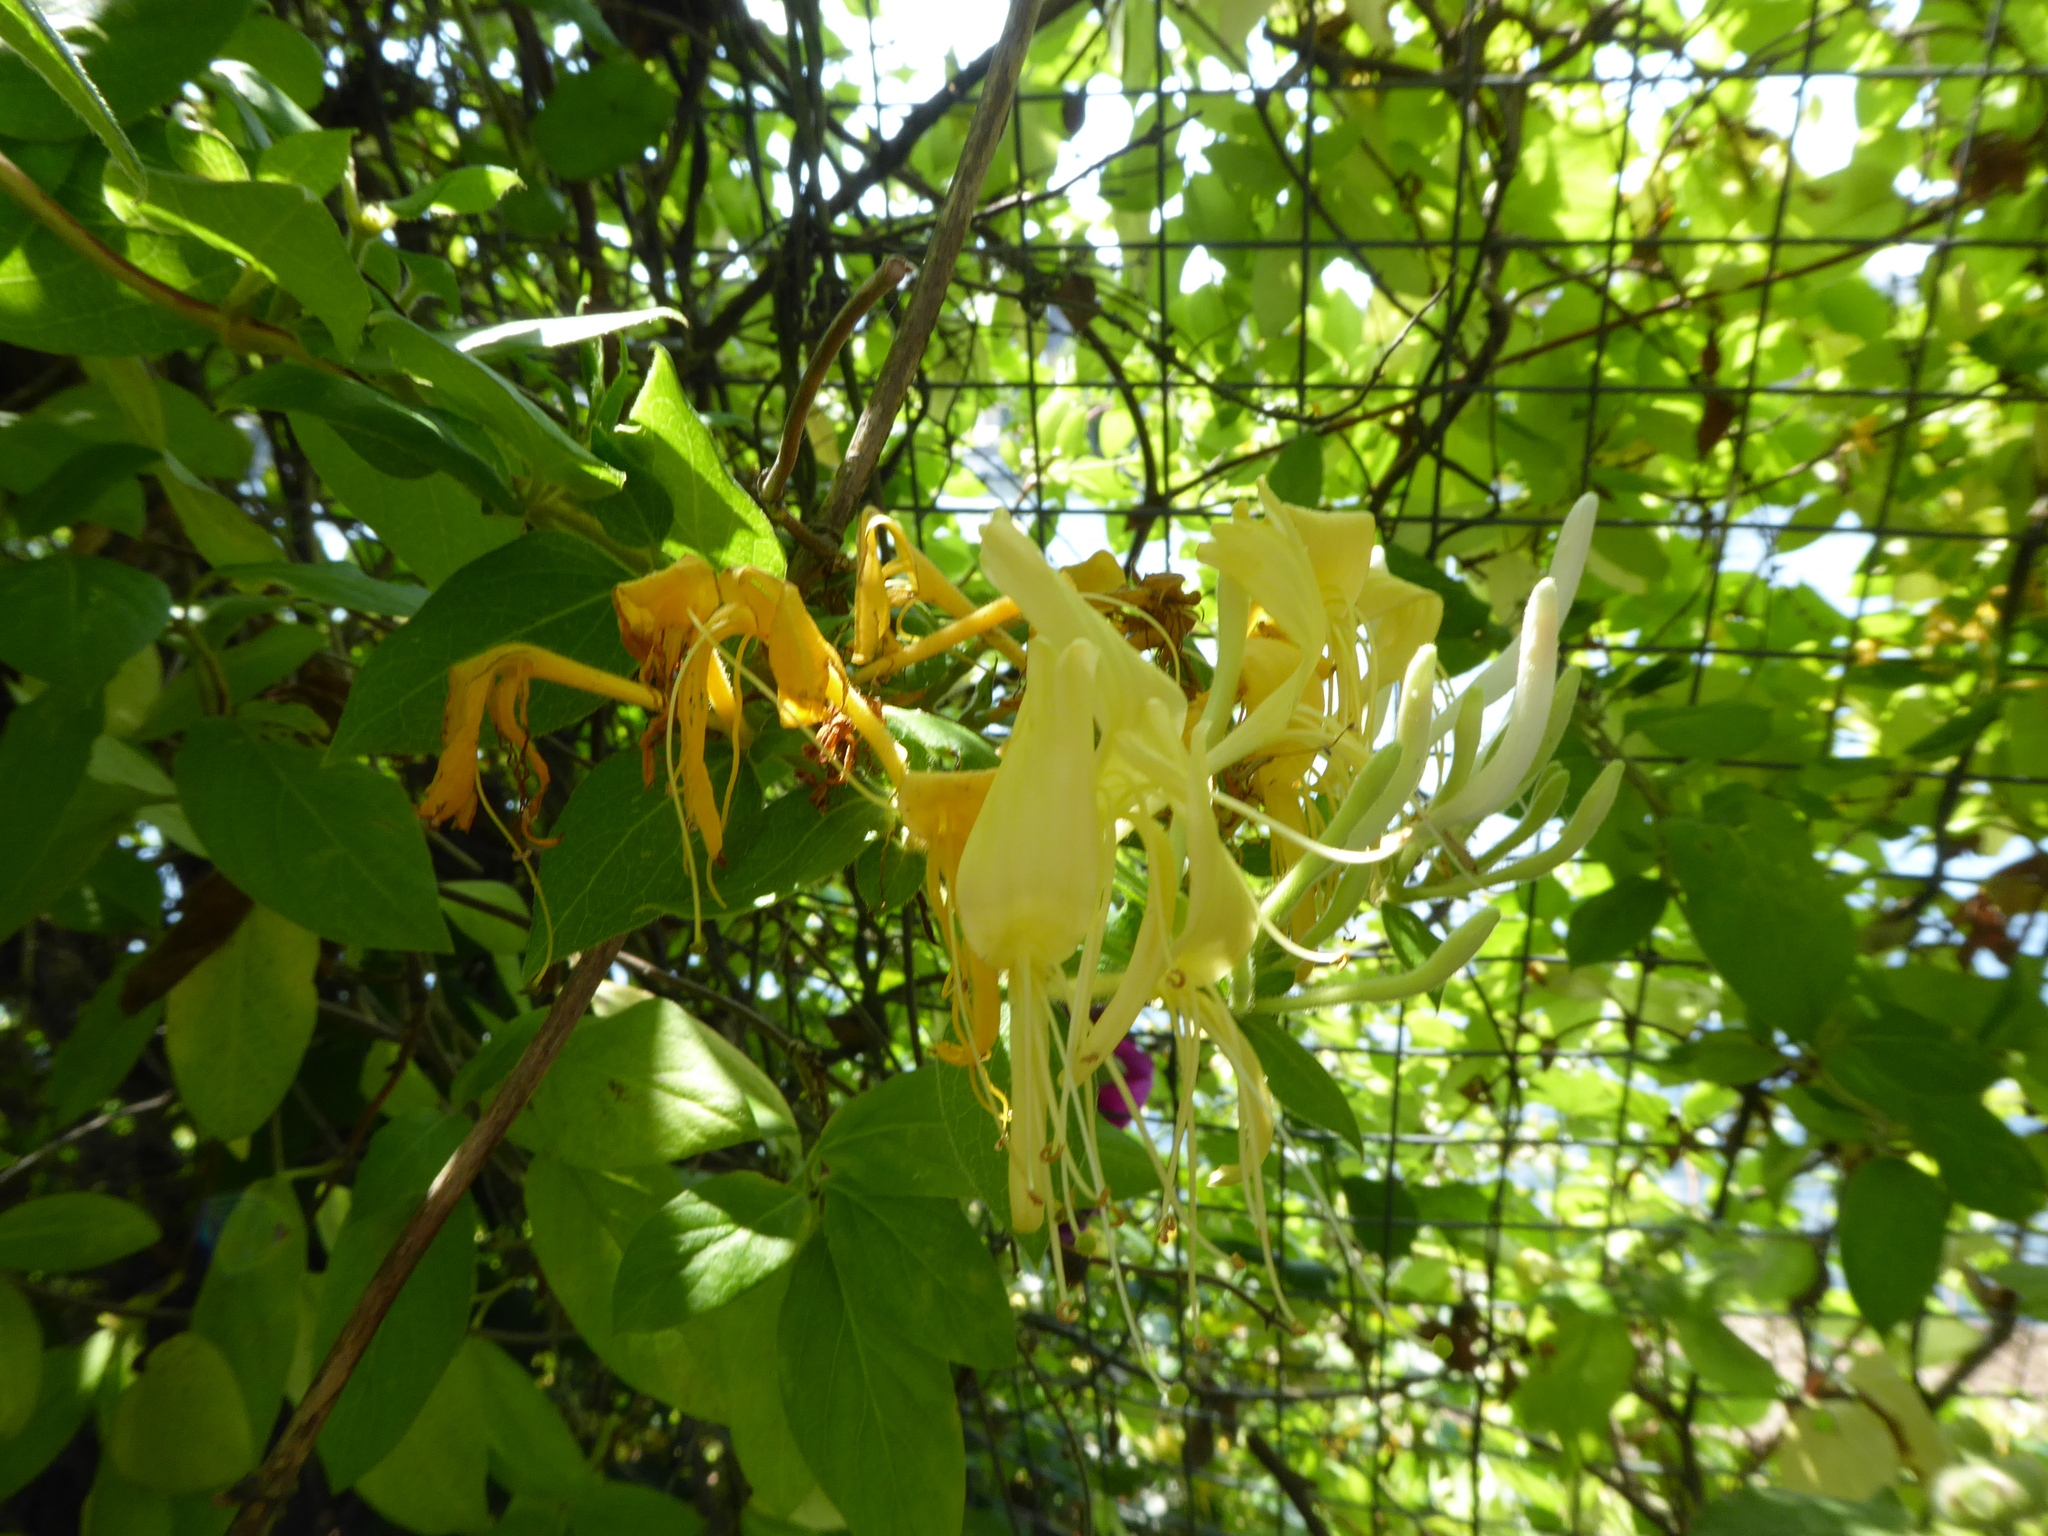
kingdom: Plantae
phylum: Tracheophyta
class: Magnoliopsida
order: Dipsacales
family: Caprifoliaceae
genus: Lonicera
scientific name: Lonicera japonica
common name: Japanese honeysuckle
